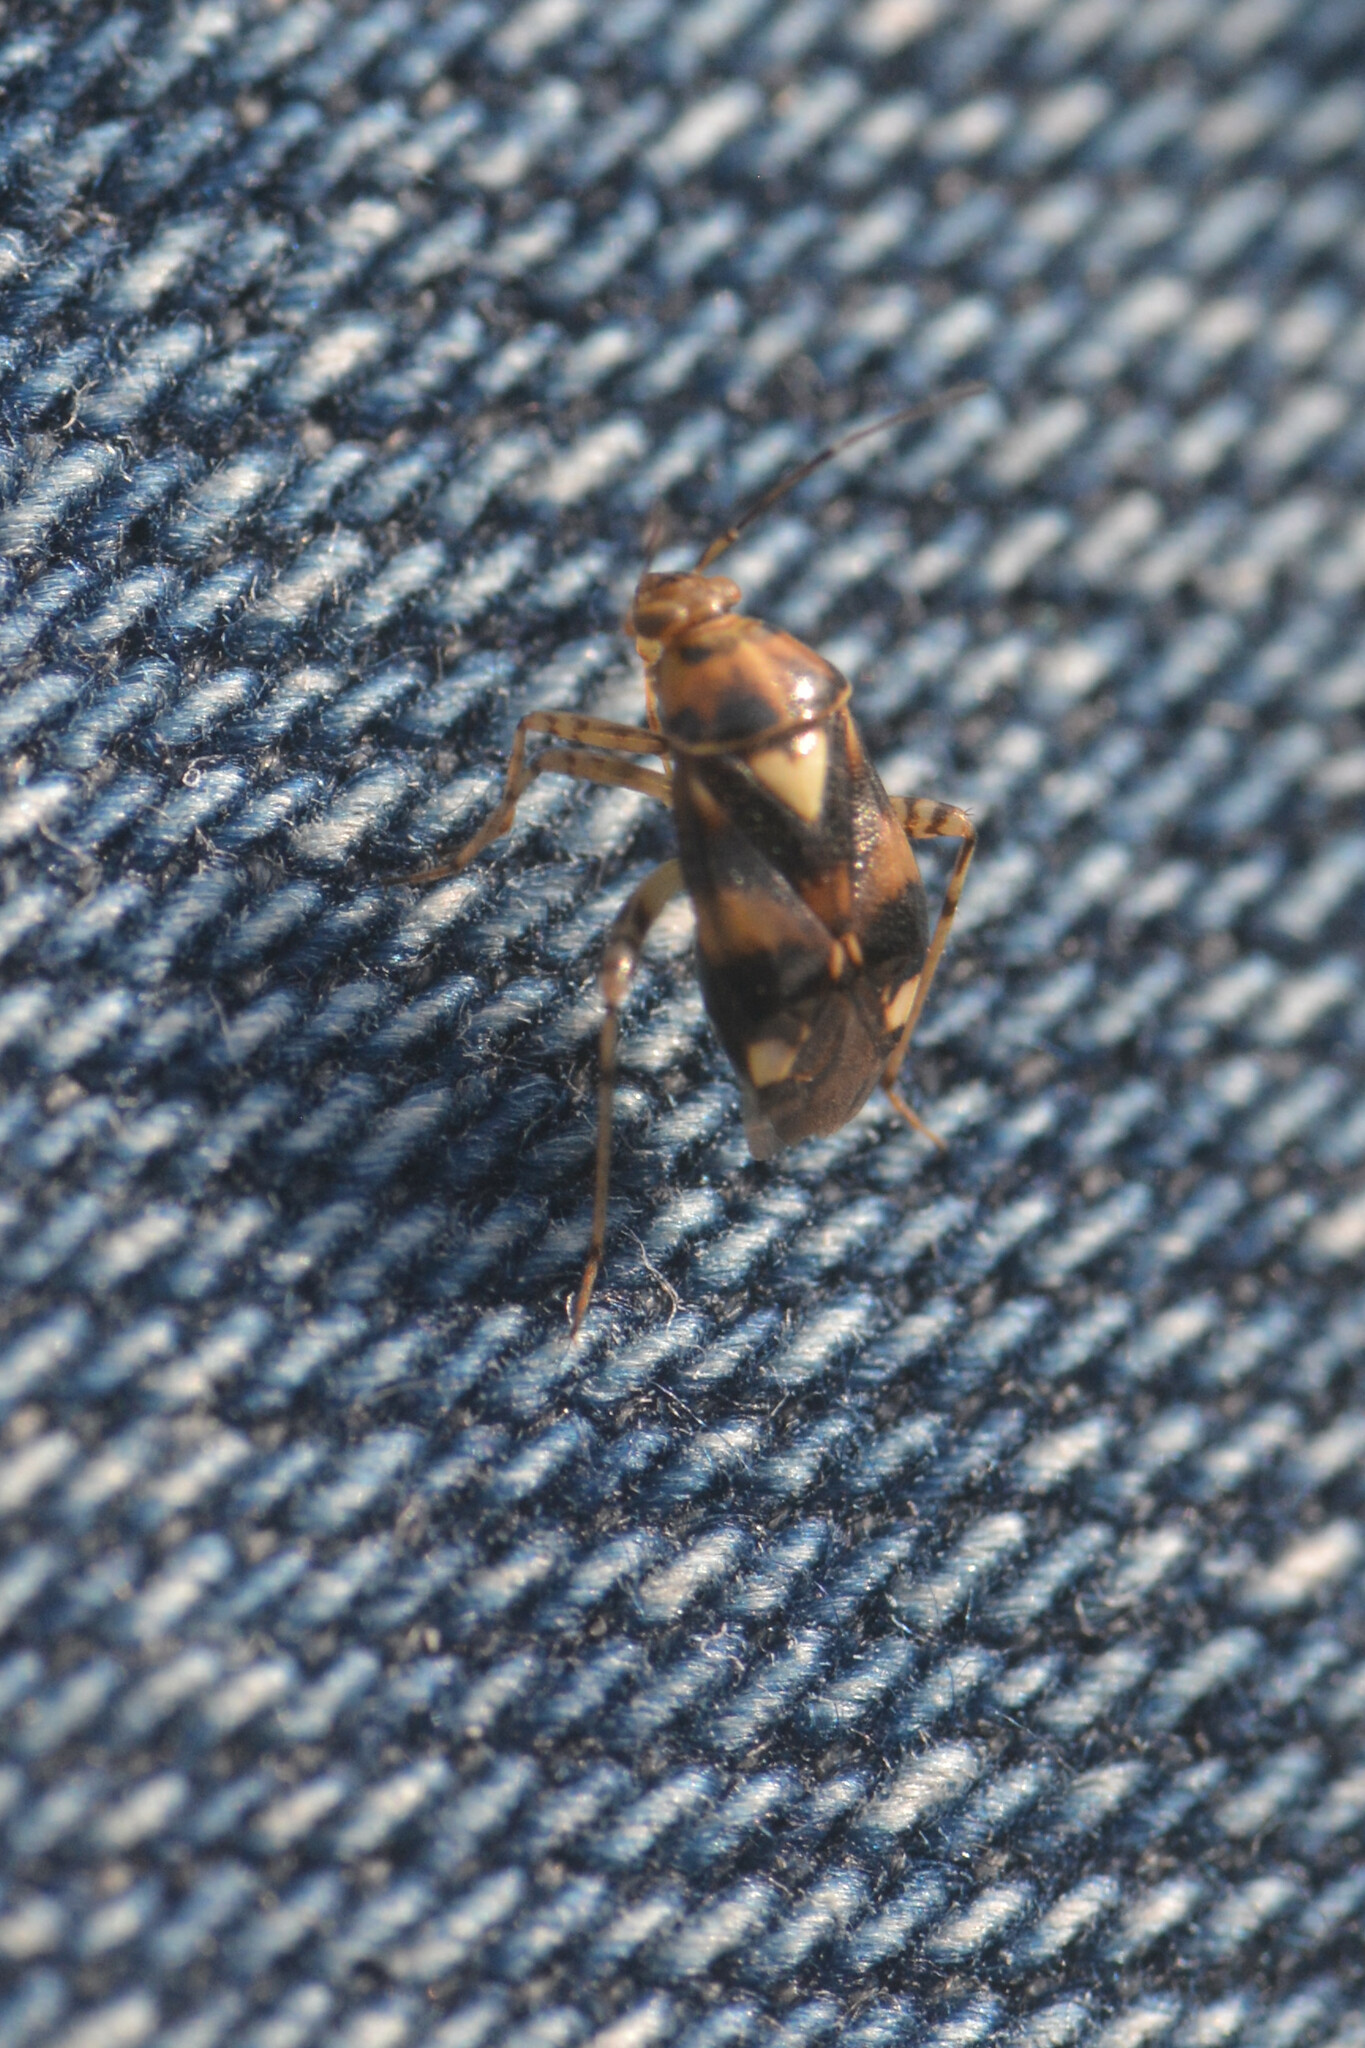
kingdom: Animalia
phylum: Arthropoda
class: Insecta
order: Hemiptera
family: Miridae
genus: Liocoris
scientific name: Liocoris tripustulatus
